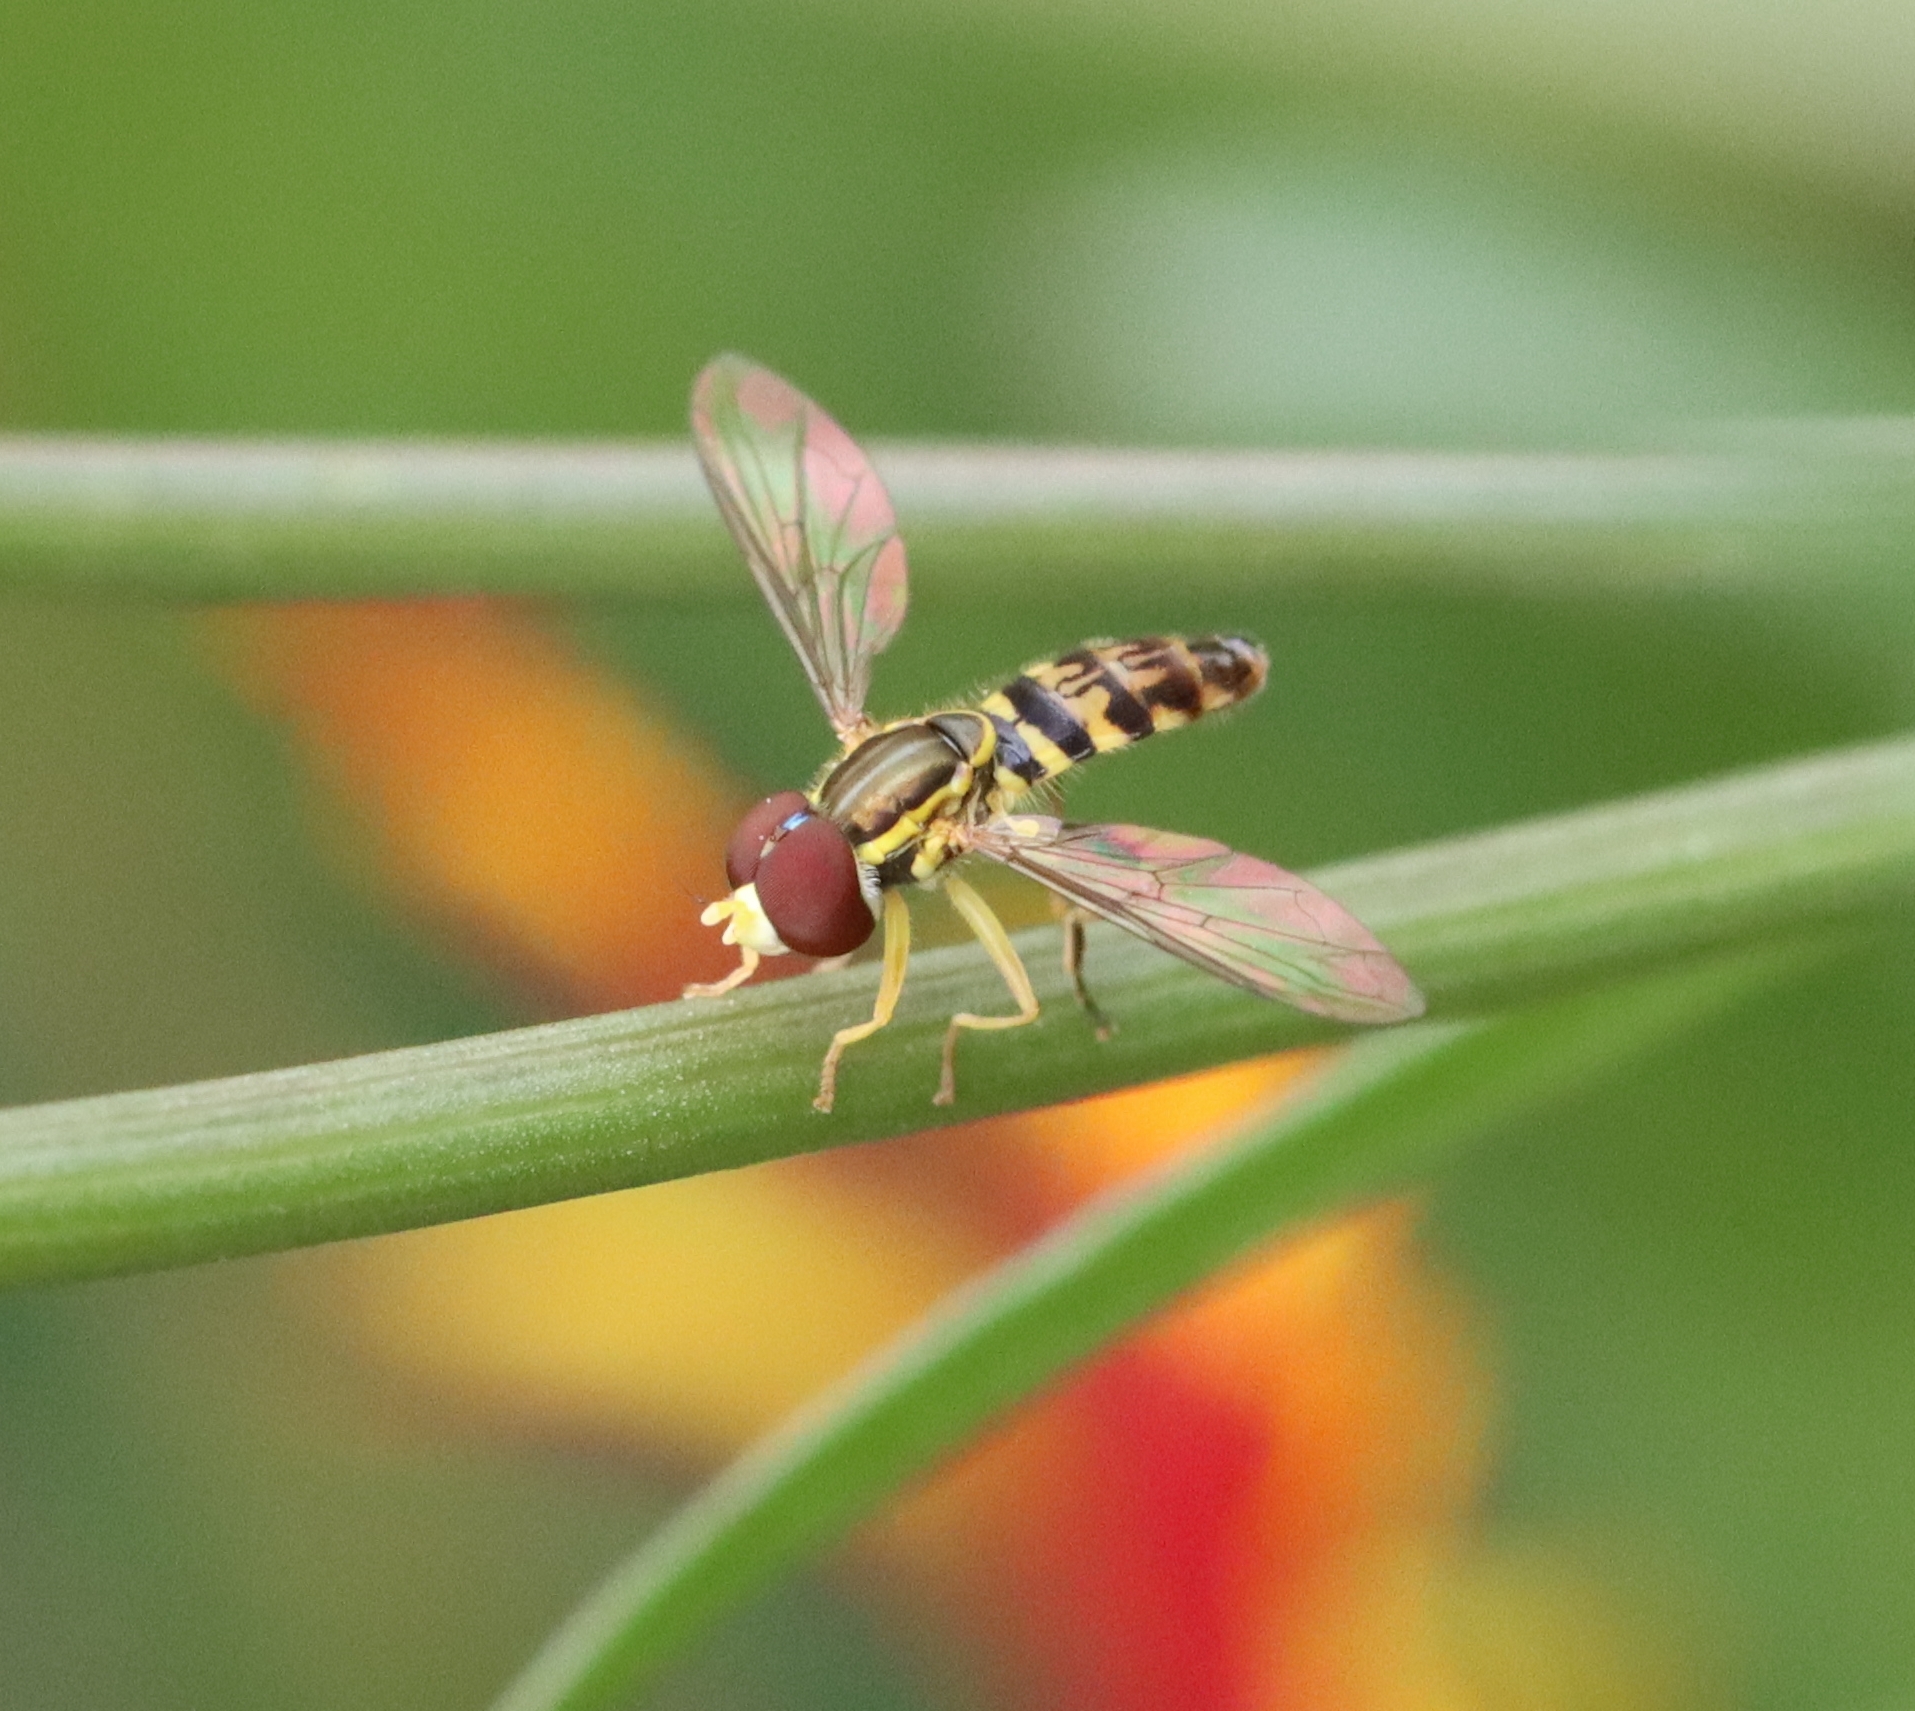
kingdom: Animalia
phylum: Arthropoda
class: Insecta
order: Diptera
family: Syrphidae
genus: Toxomerus
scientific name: Toxomerus geminatus
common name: Eastern calligrapher
